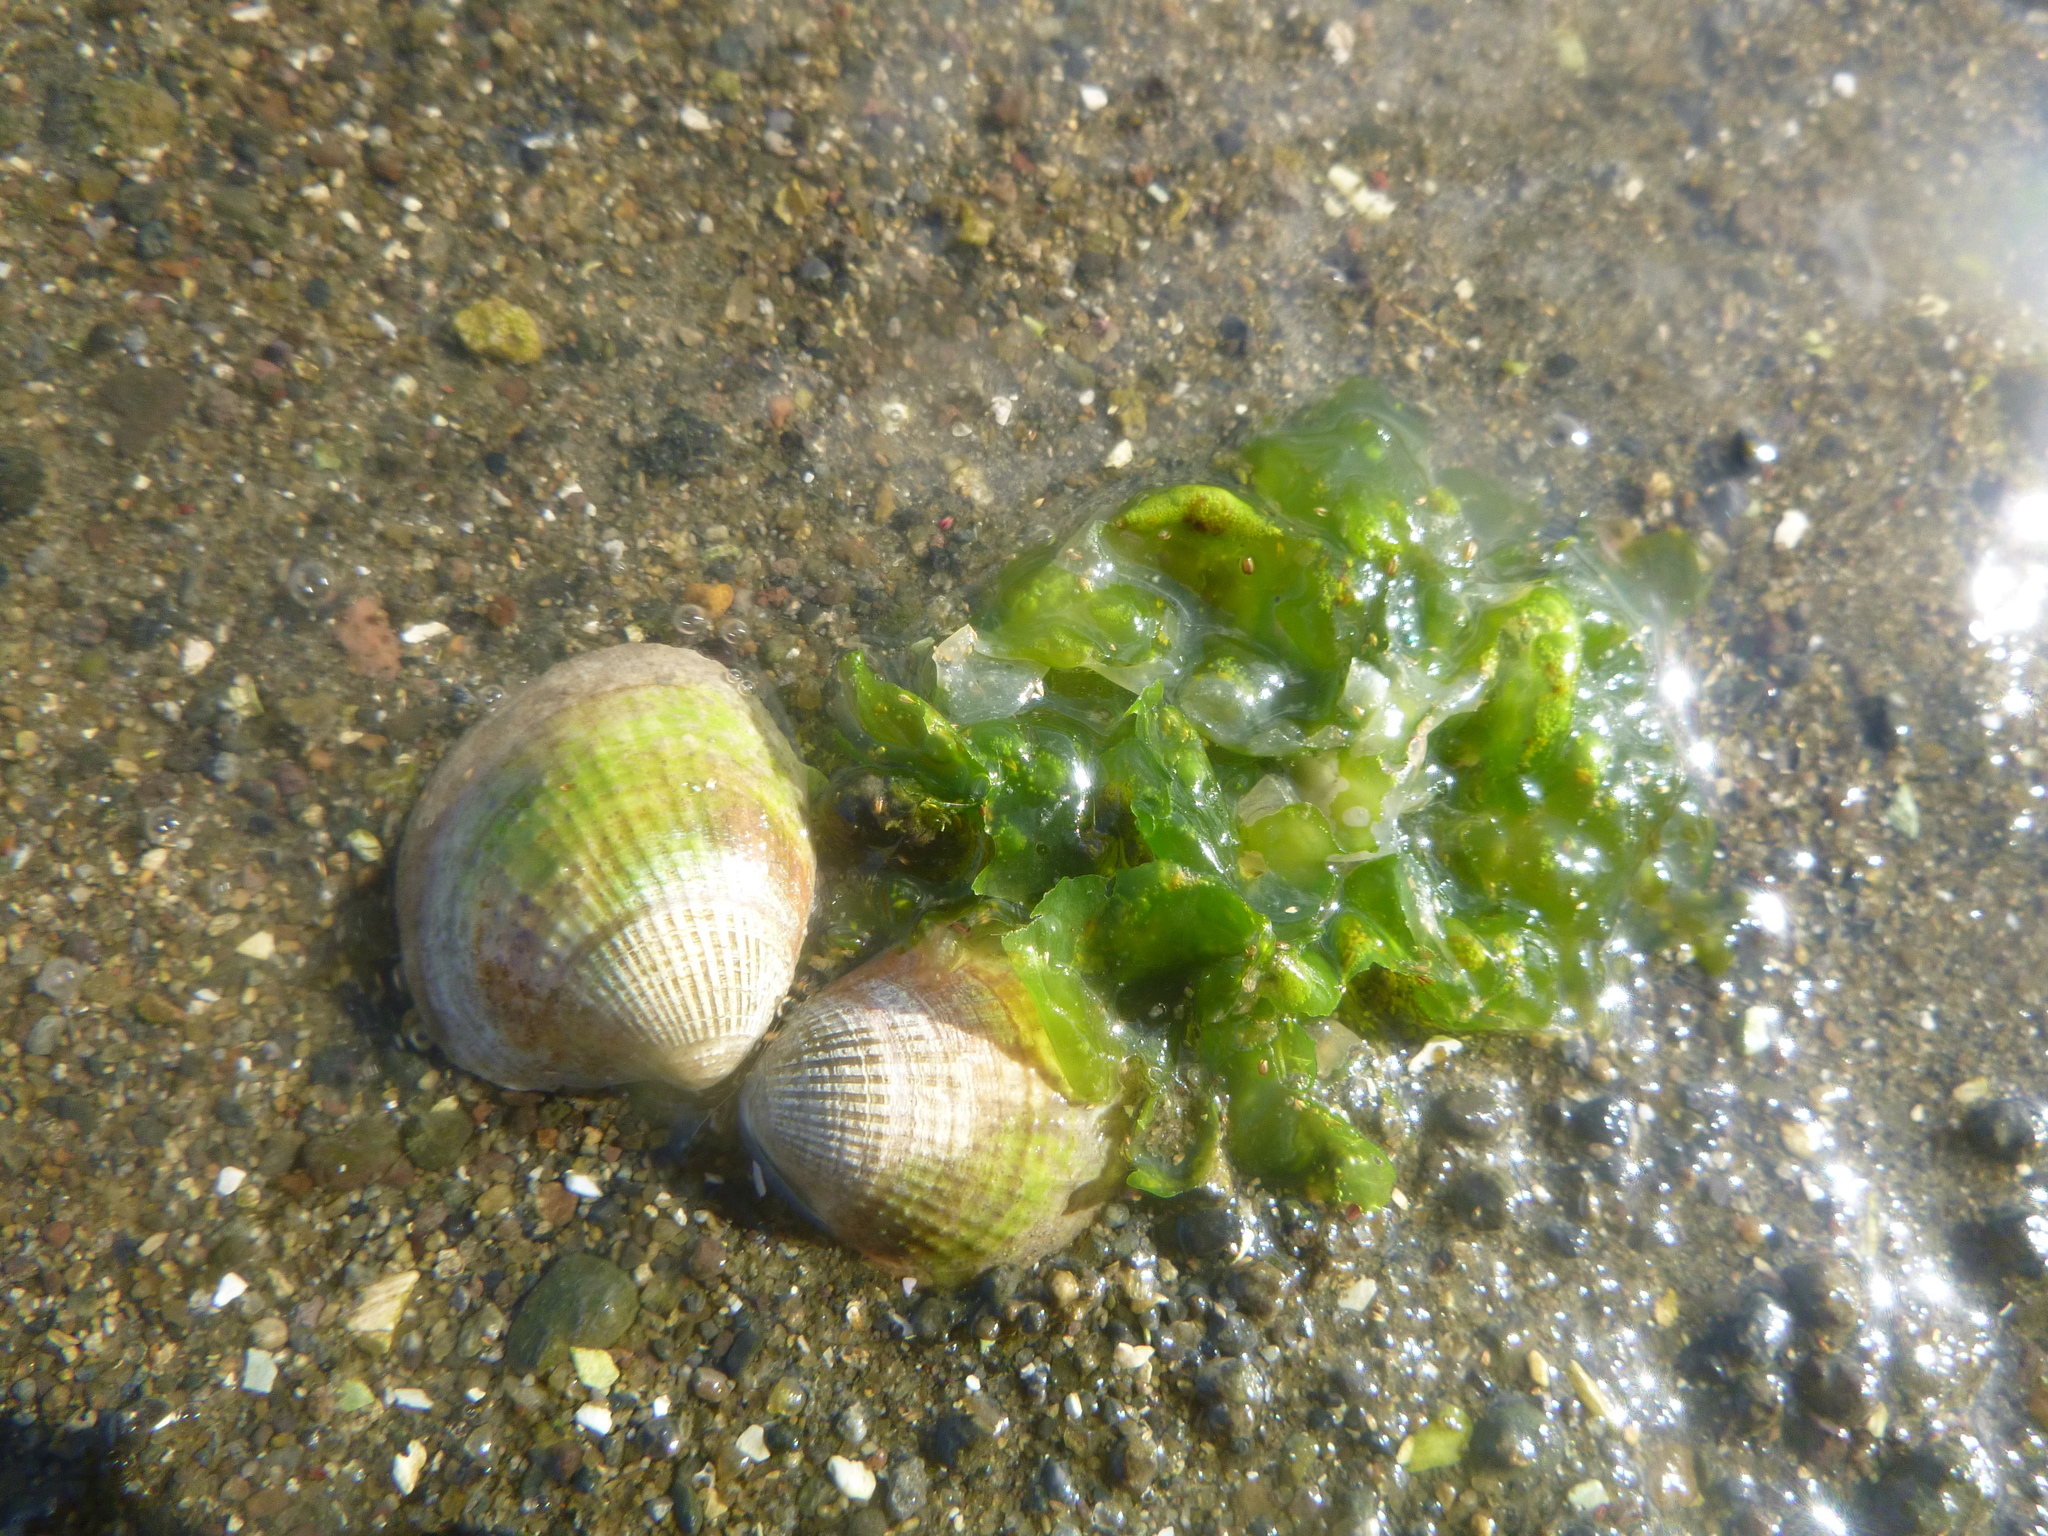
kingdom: Plantae
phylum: Chlorophyta
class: Ulvophyceae
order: Ulvales
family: Ulvaceae
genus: Ulva
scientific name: Ulva
